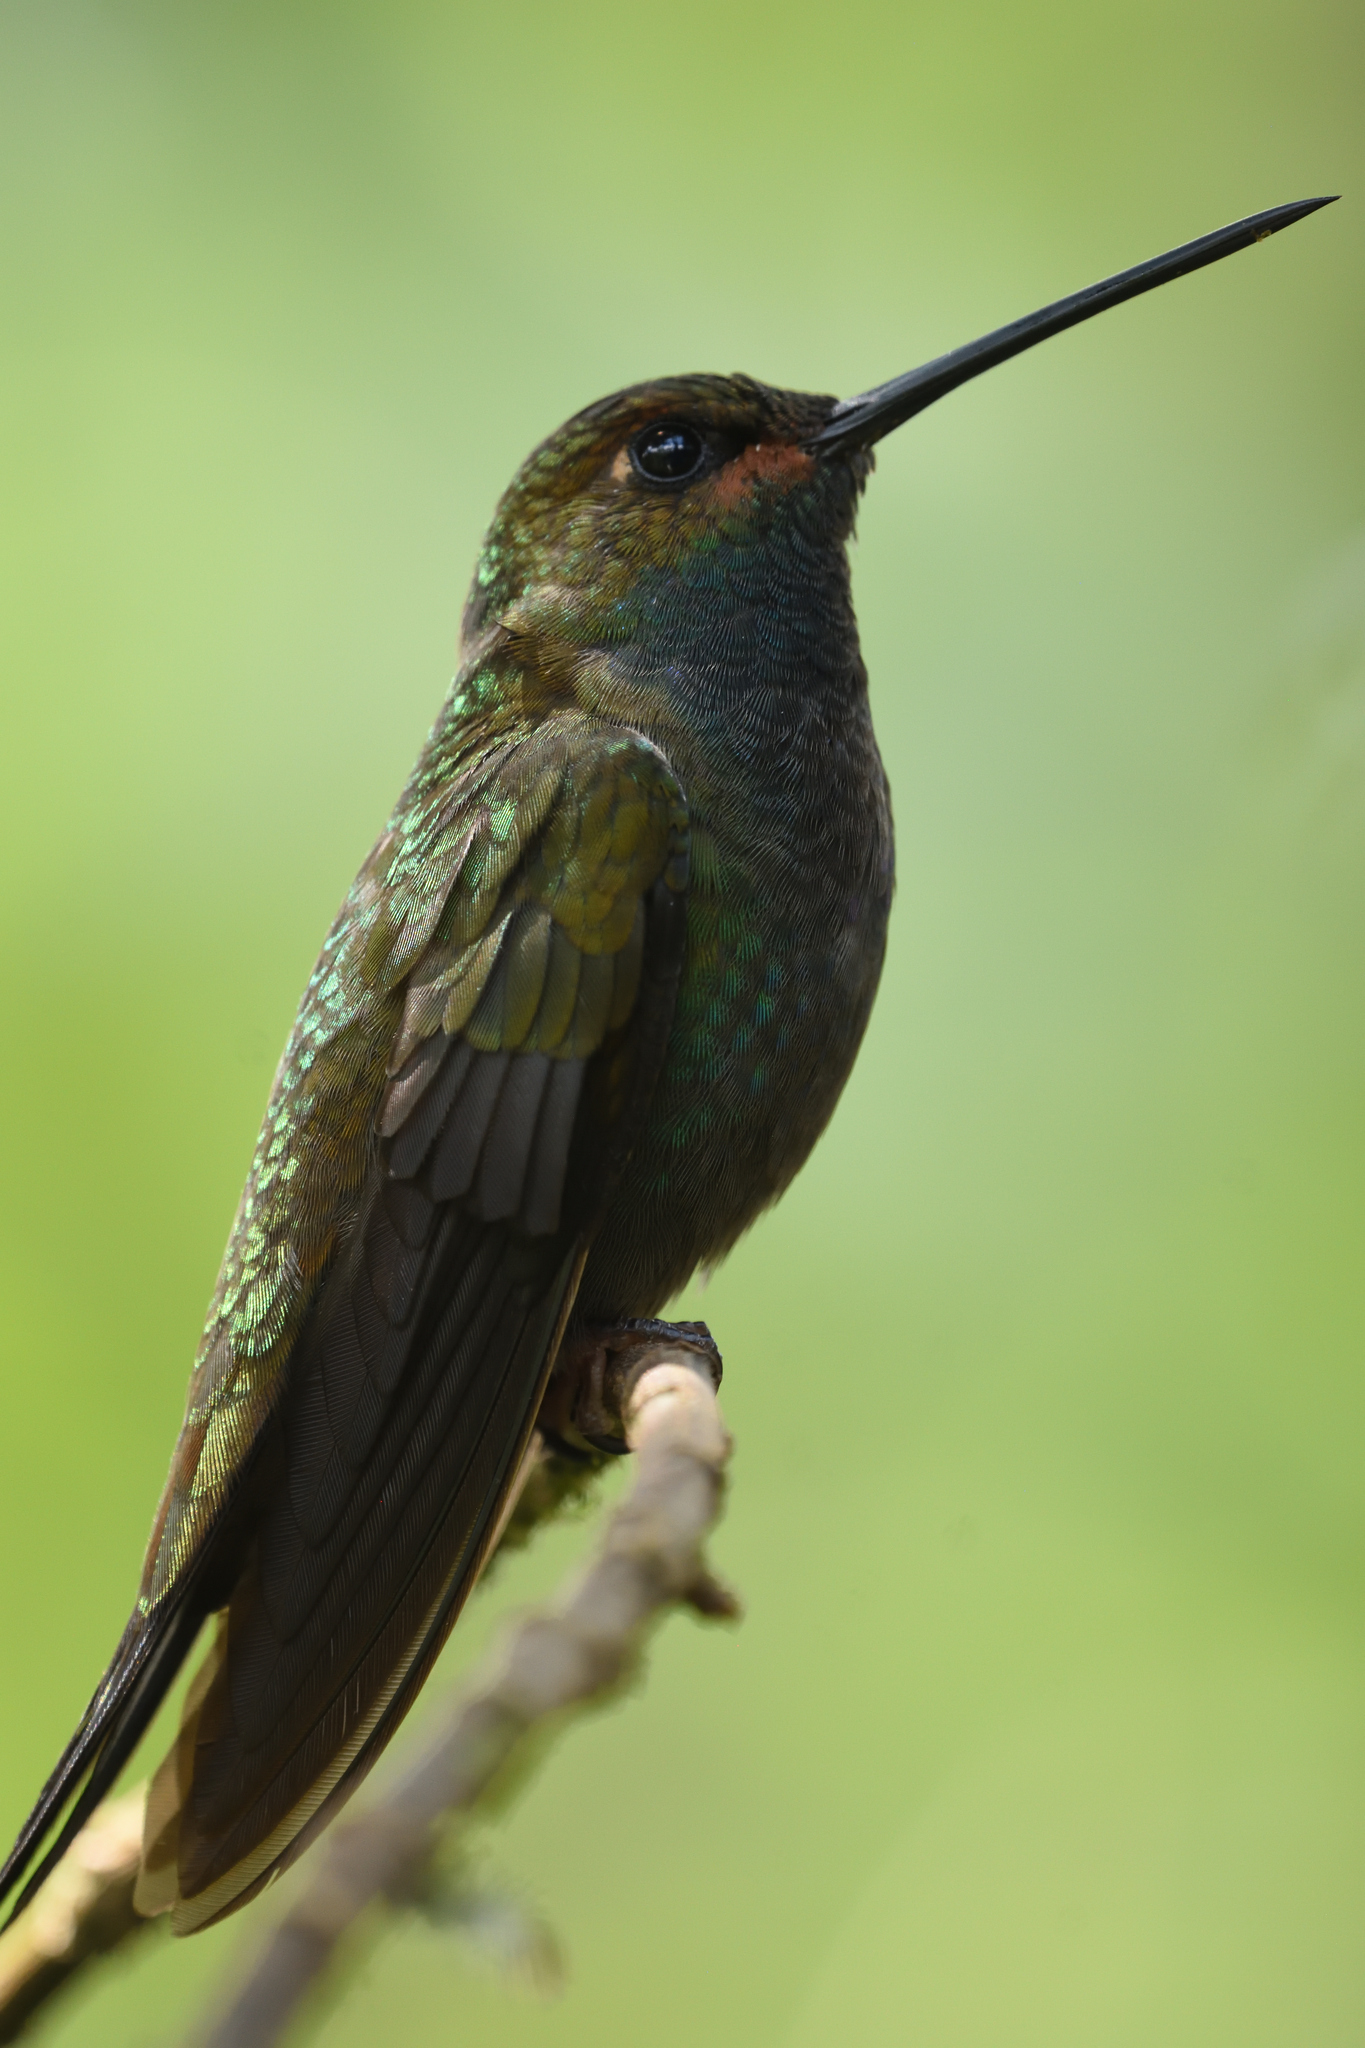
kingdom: Animalia
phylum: Chordata
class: Aves
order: Apodiformes
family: Trochilidae
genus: Urochroa
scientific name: Urochroa bougueri
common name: White-tailed hillstar
